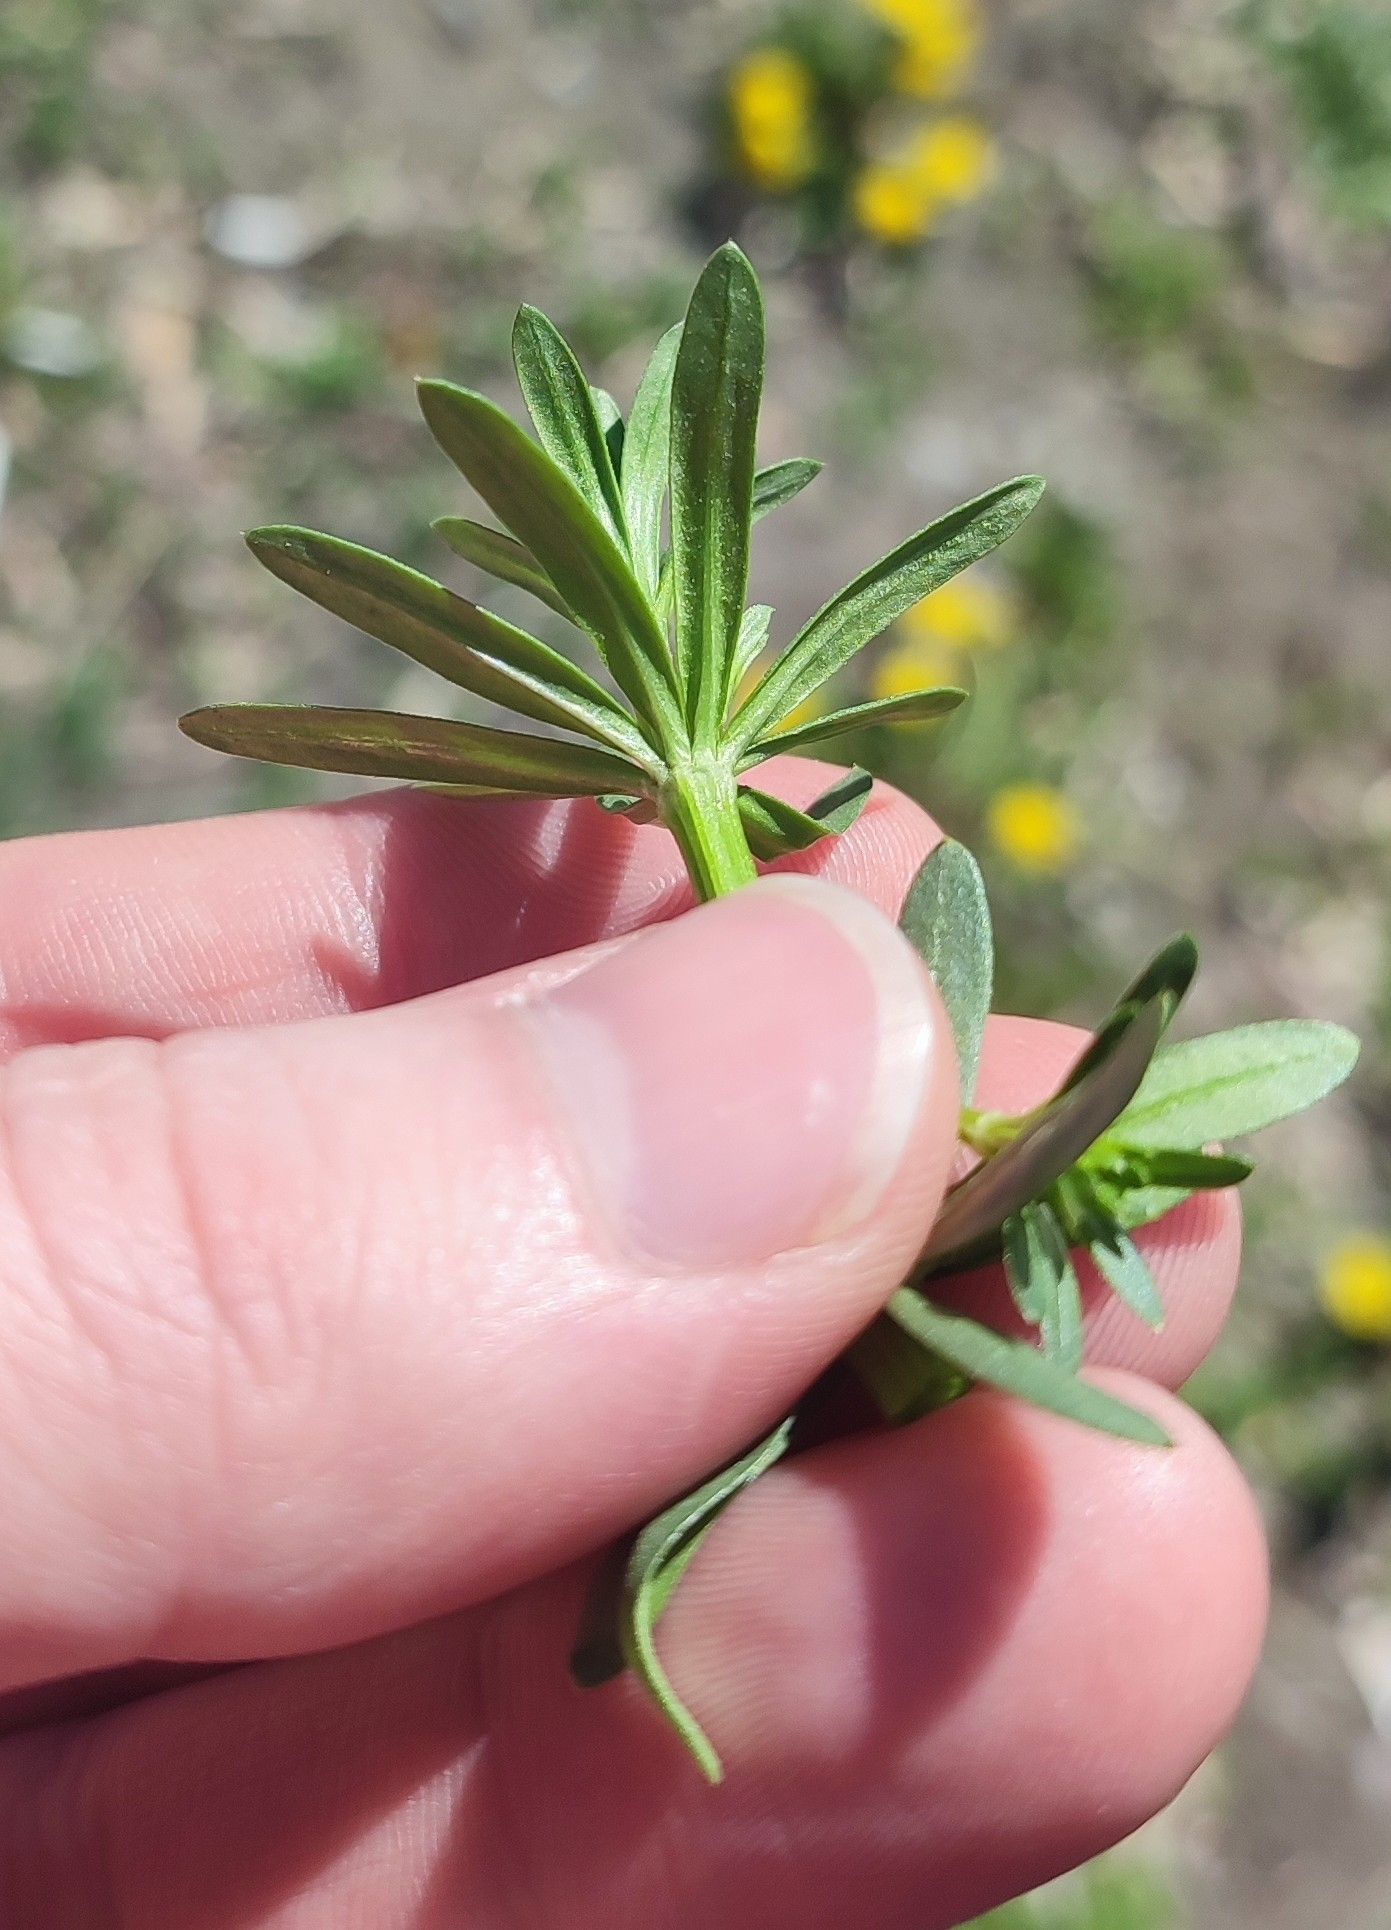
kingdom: Plantae
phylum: Tracheophyta
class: Magnoliopsida
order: Gentianales
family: Rubiaceae
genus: Galium
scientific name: Galium mollugo
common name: Hedge bedstraw
